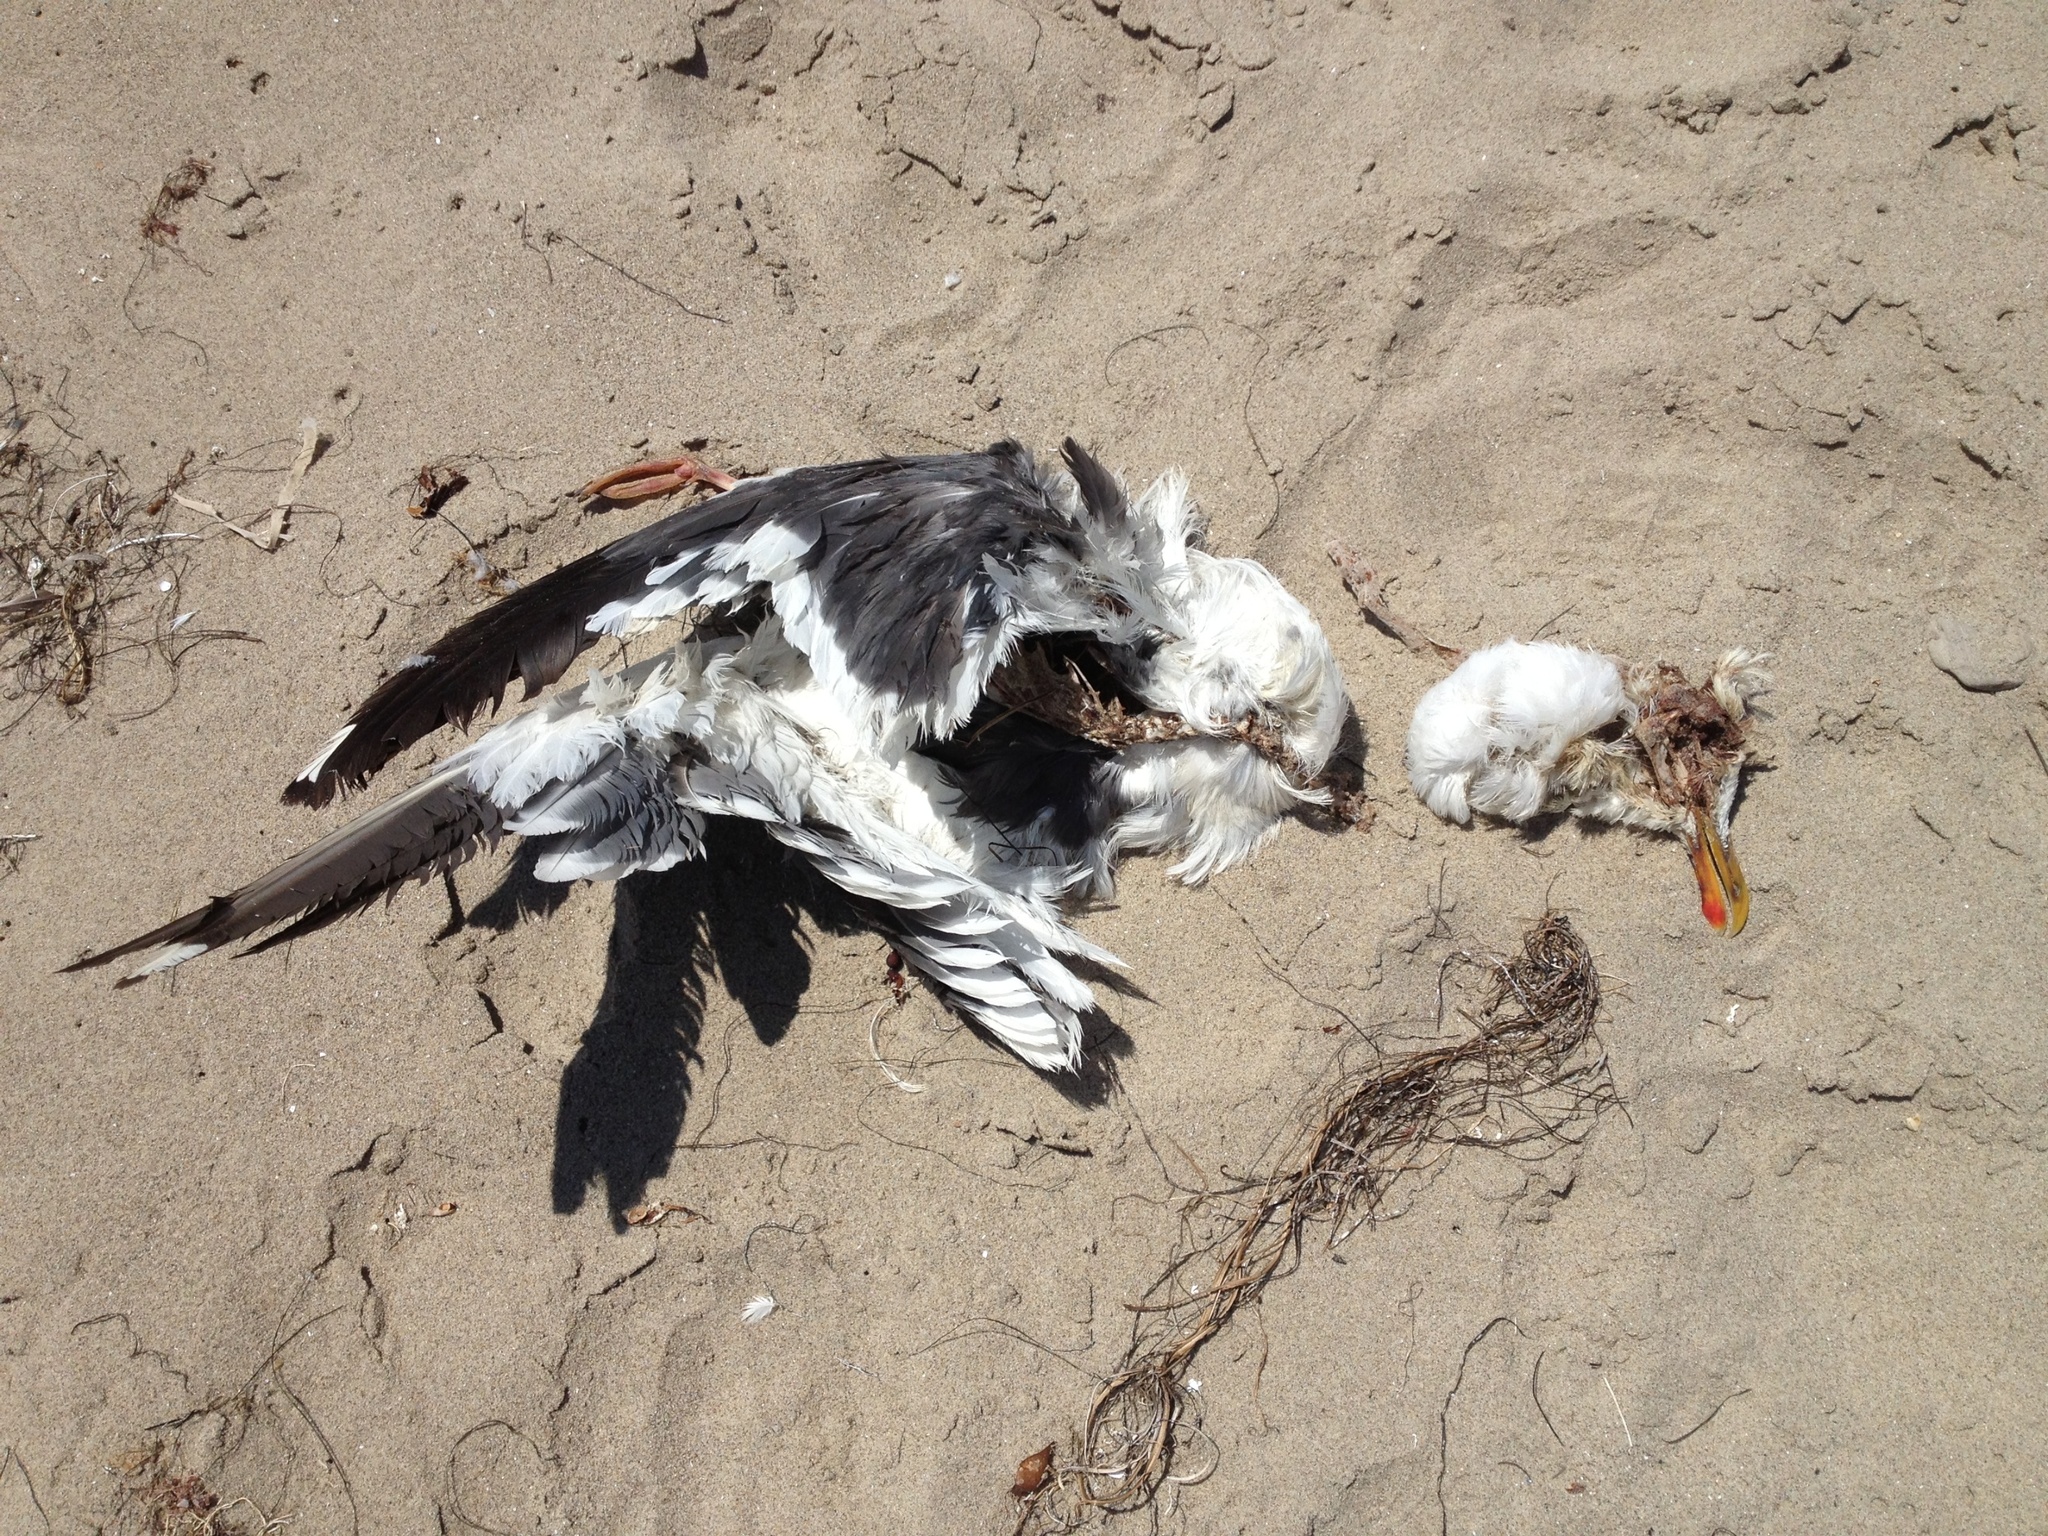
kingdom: Animalia
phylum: Chordata
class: Aves
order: Charadriiformes
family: Laridae
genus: Larus
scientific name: Larus occidentalis
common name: Western gull
